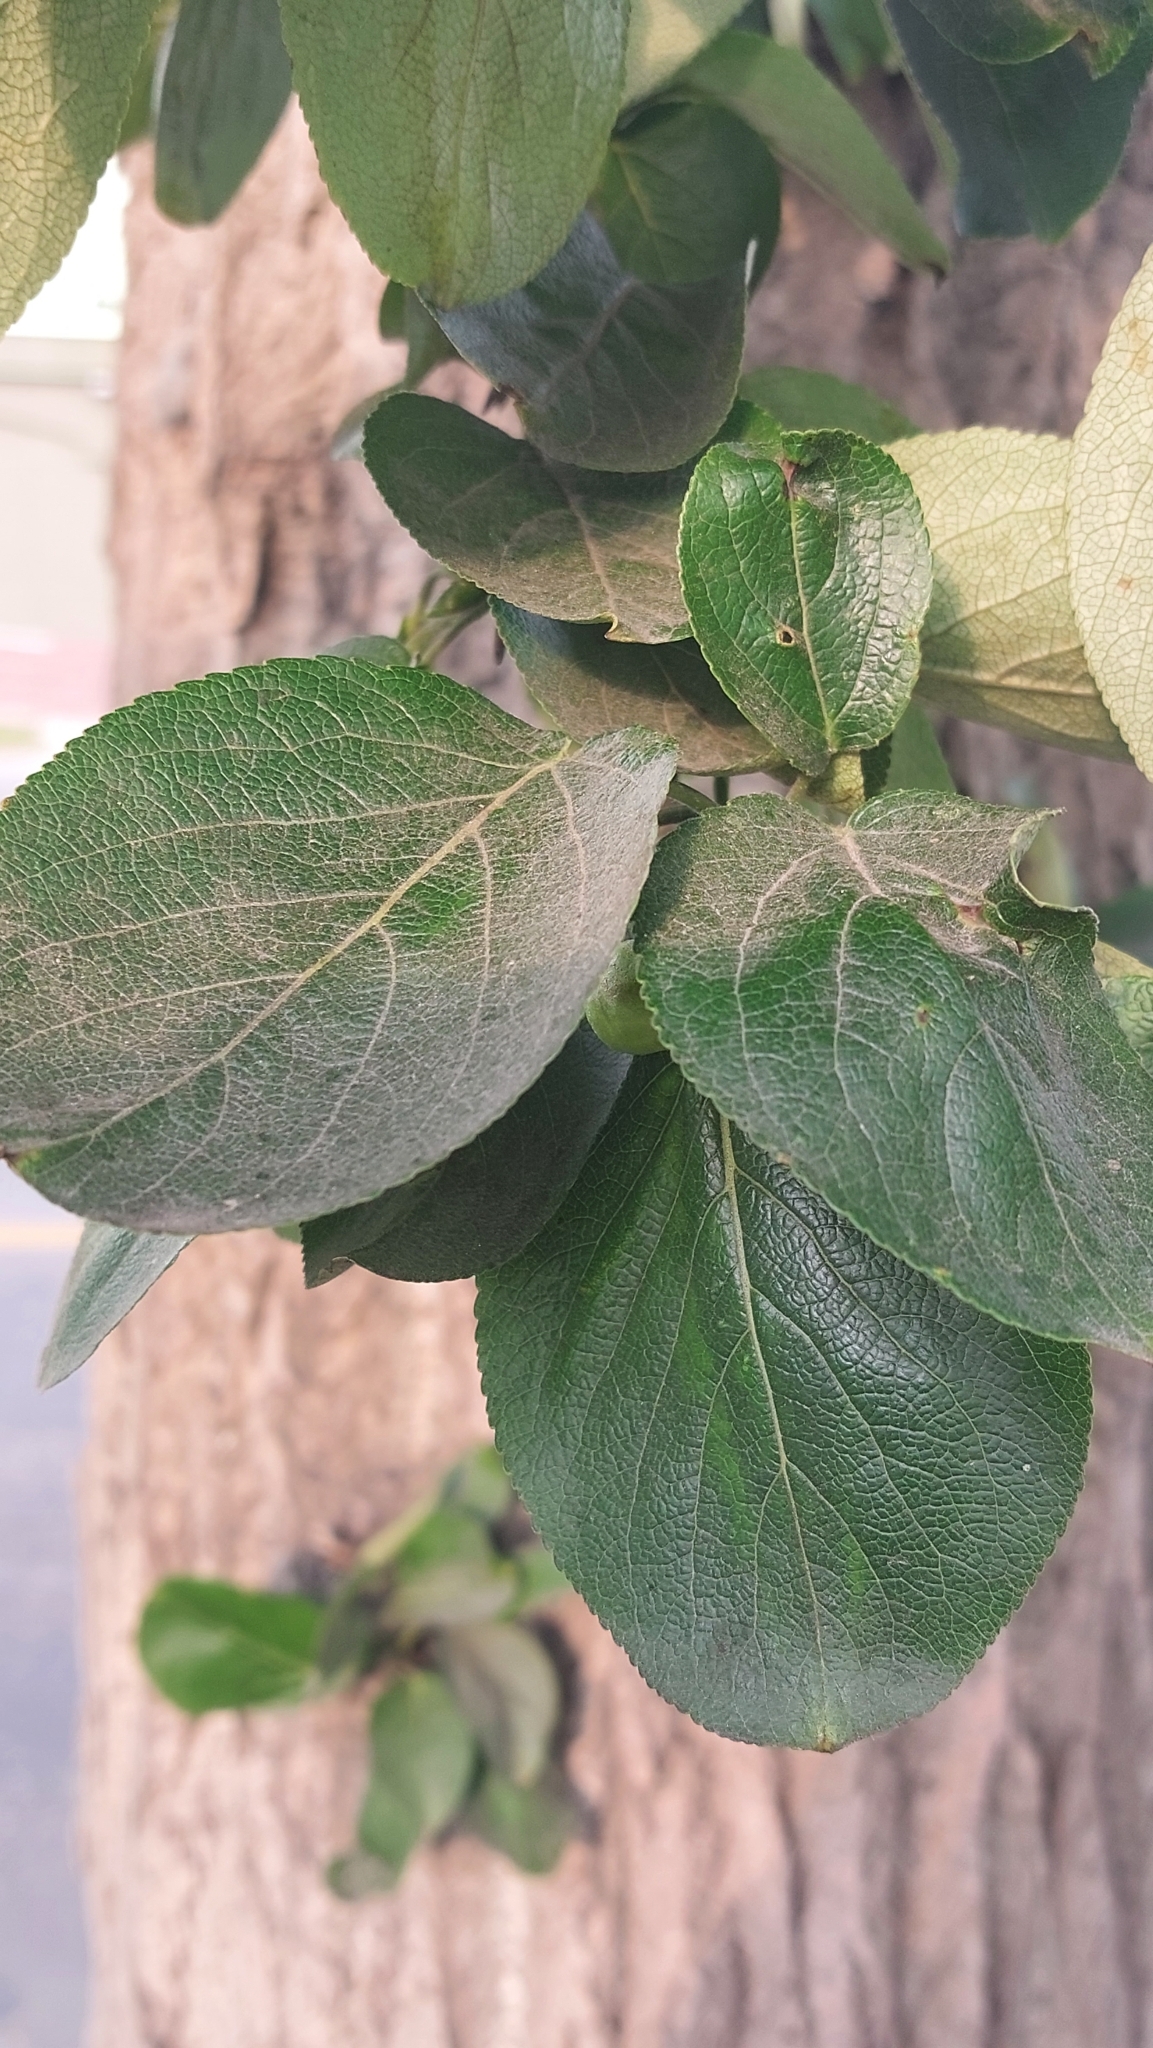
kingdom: Plantae
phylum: Tracheophyta
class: Magnoliopsida
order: Malpighiales
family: Salicaceae
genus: Populus
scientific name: Populus suaveolens
